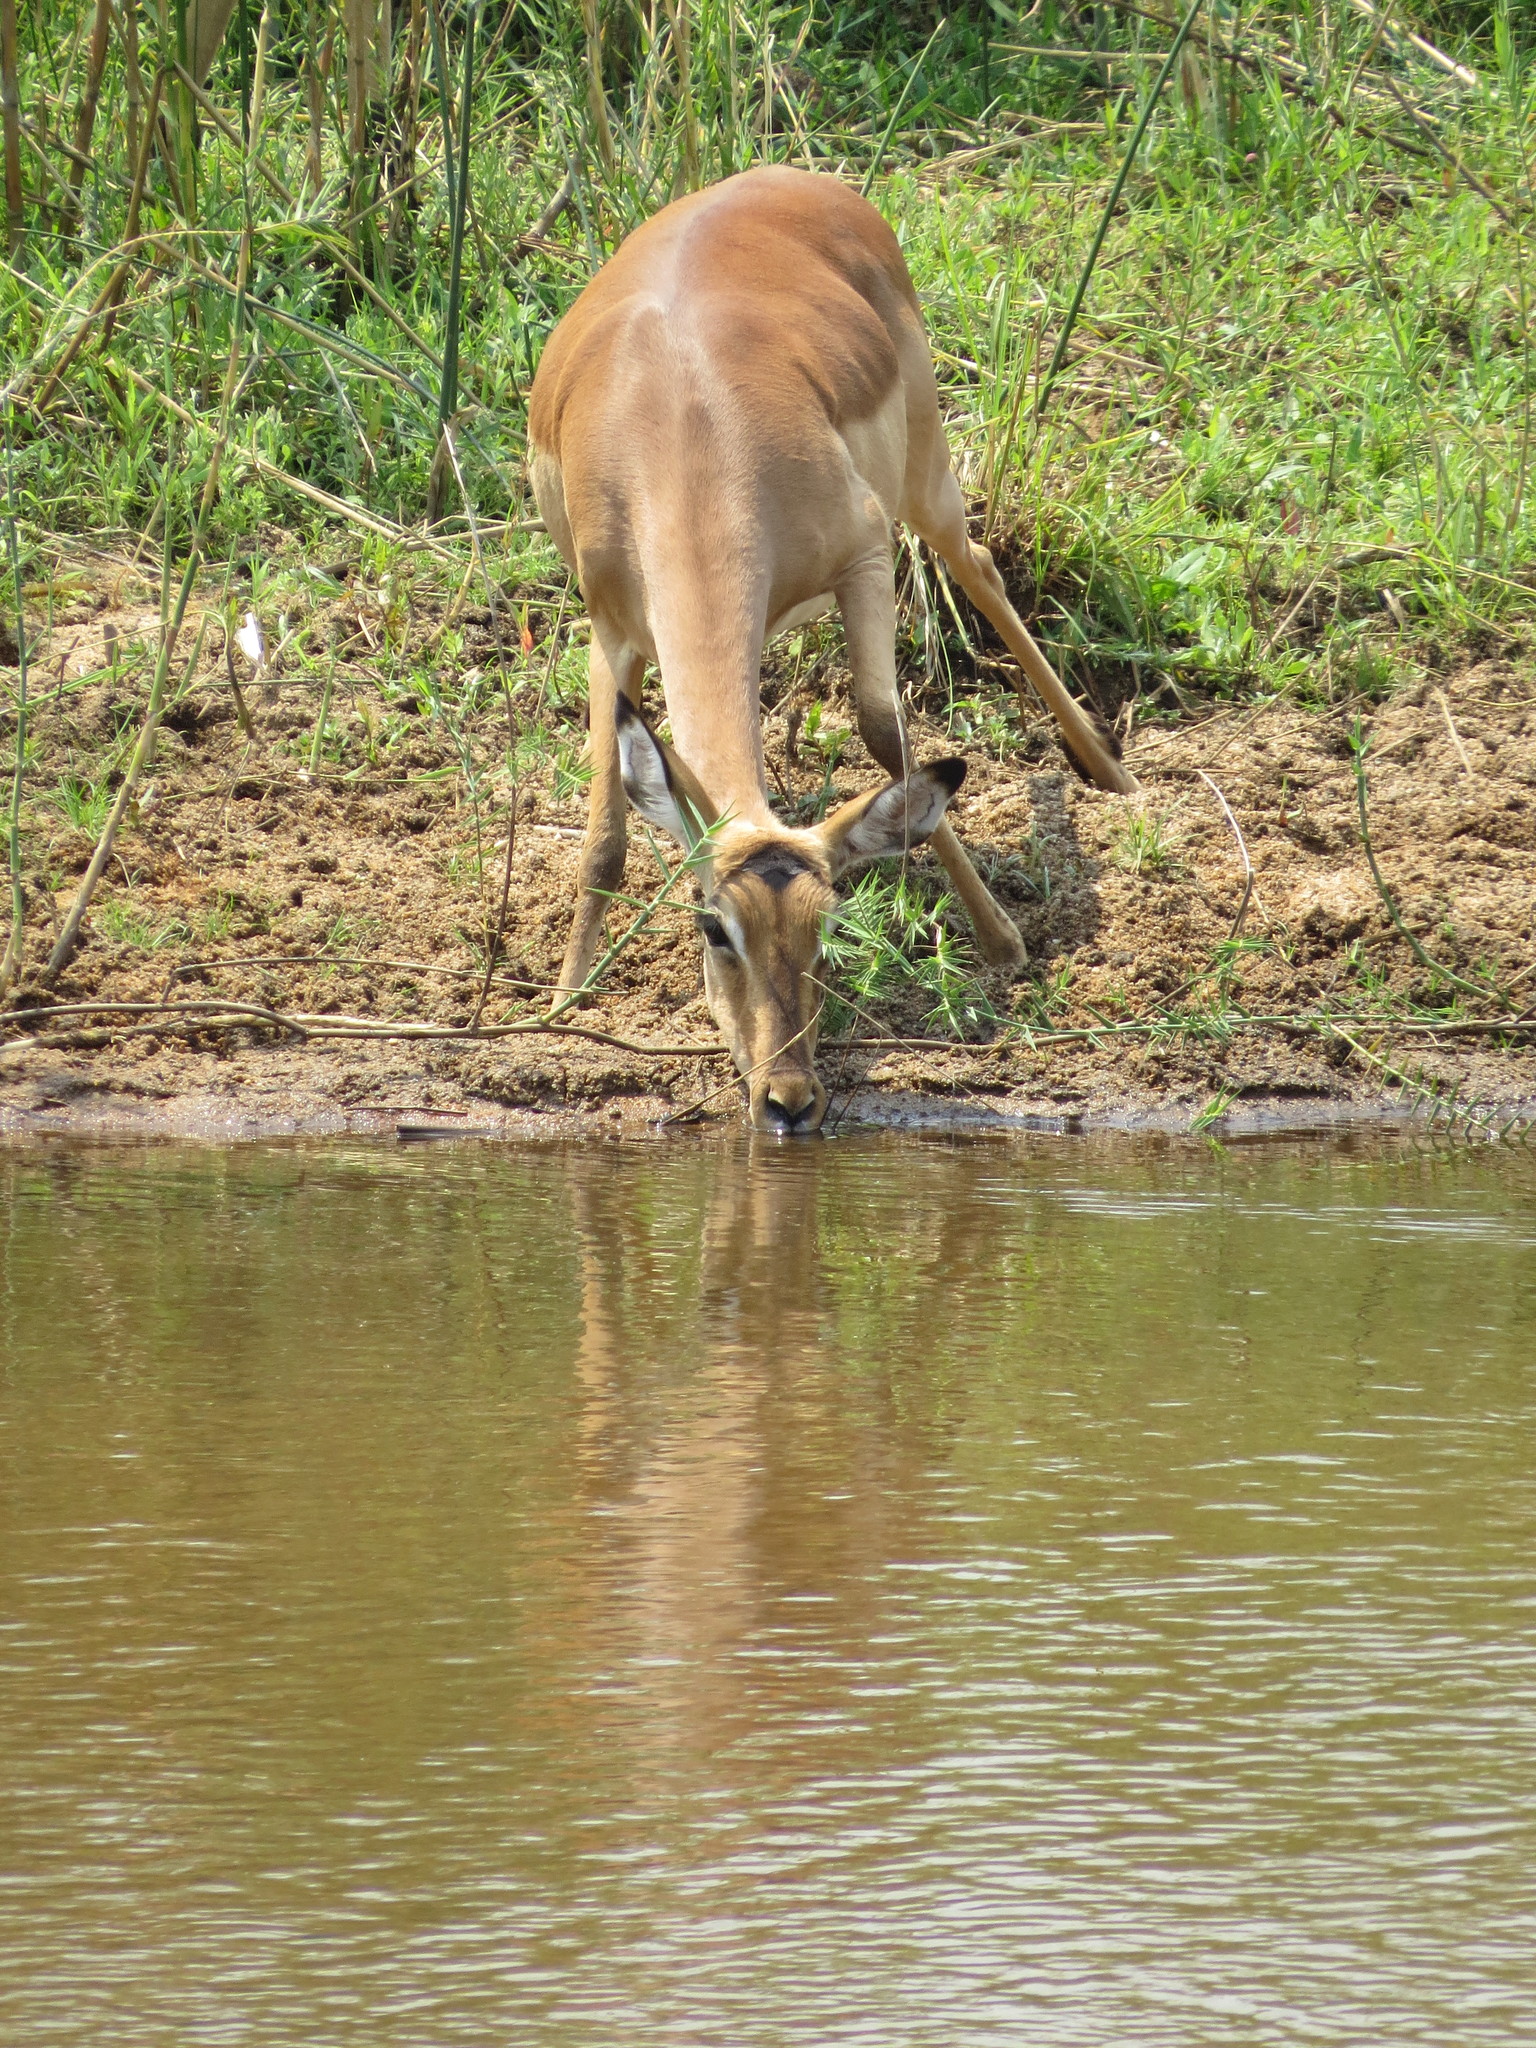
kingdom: Animalia
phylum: Chordata
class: Mammalia
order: Artiodactyla
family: Bovidae
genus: Aepyceros
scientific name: Aepyceros melampus
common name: Impala
